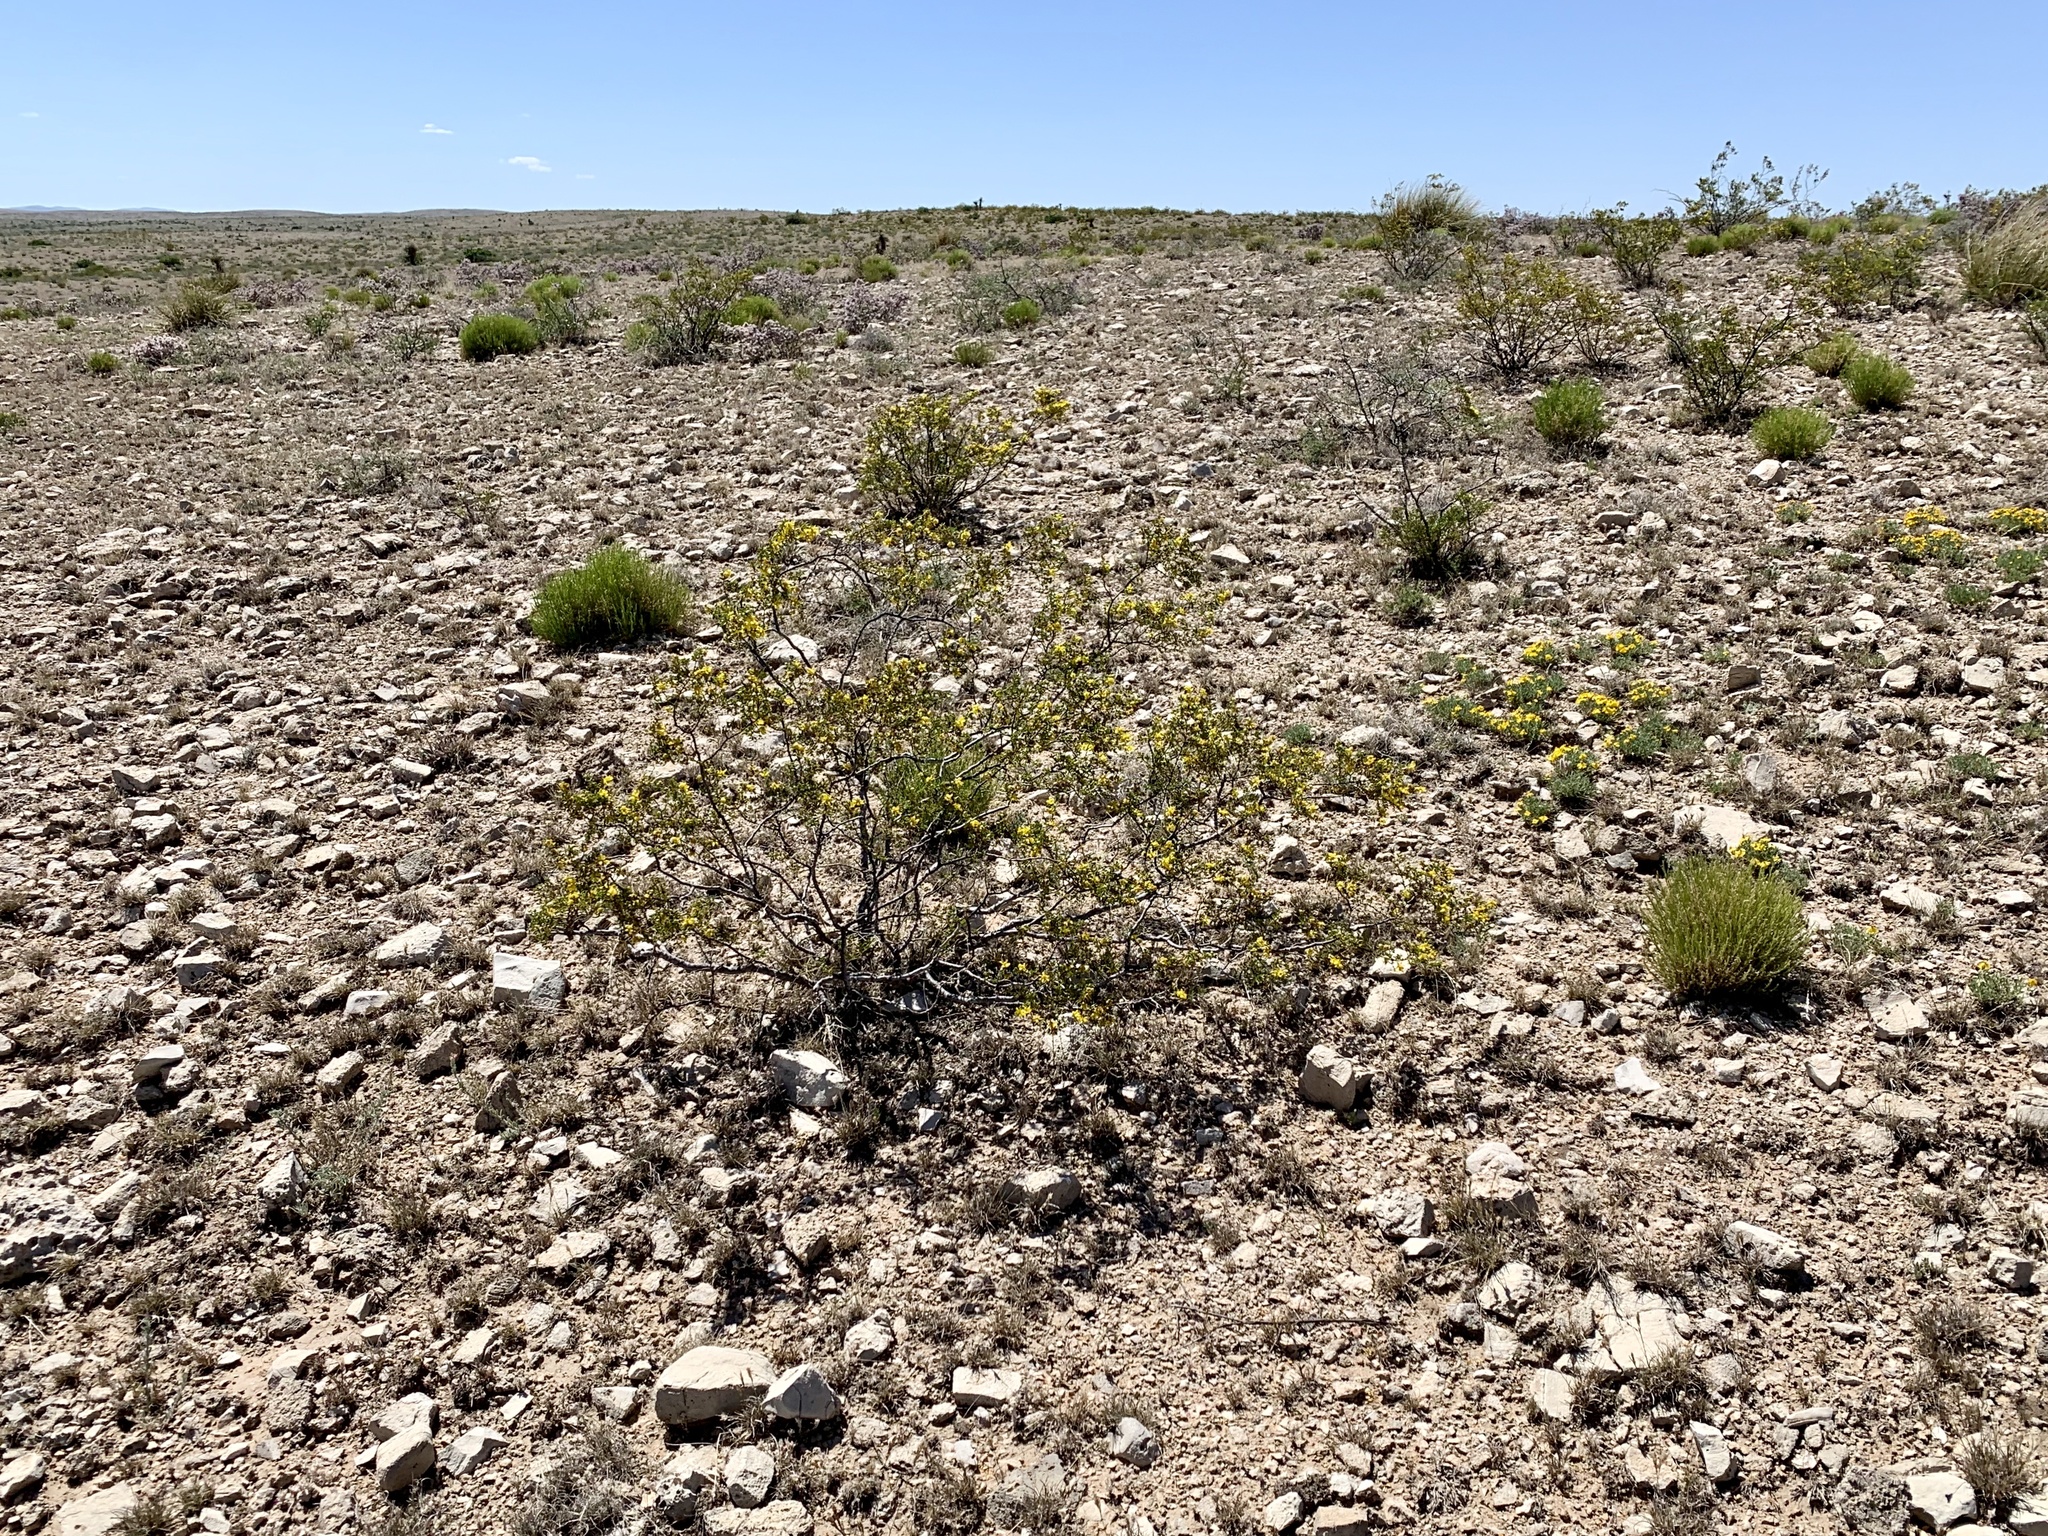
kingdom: Plantae
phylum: Tracheophyta
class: Magnoliopsida
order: Zygophyllales
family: Zygophyllaceae
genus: Larrea
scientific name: Larrea tridentata
